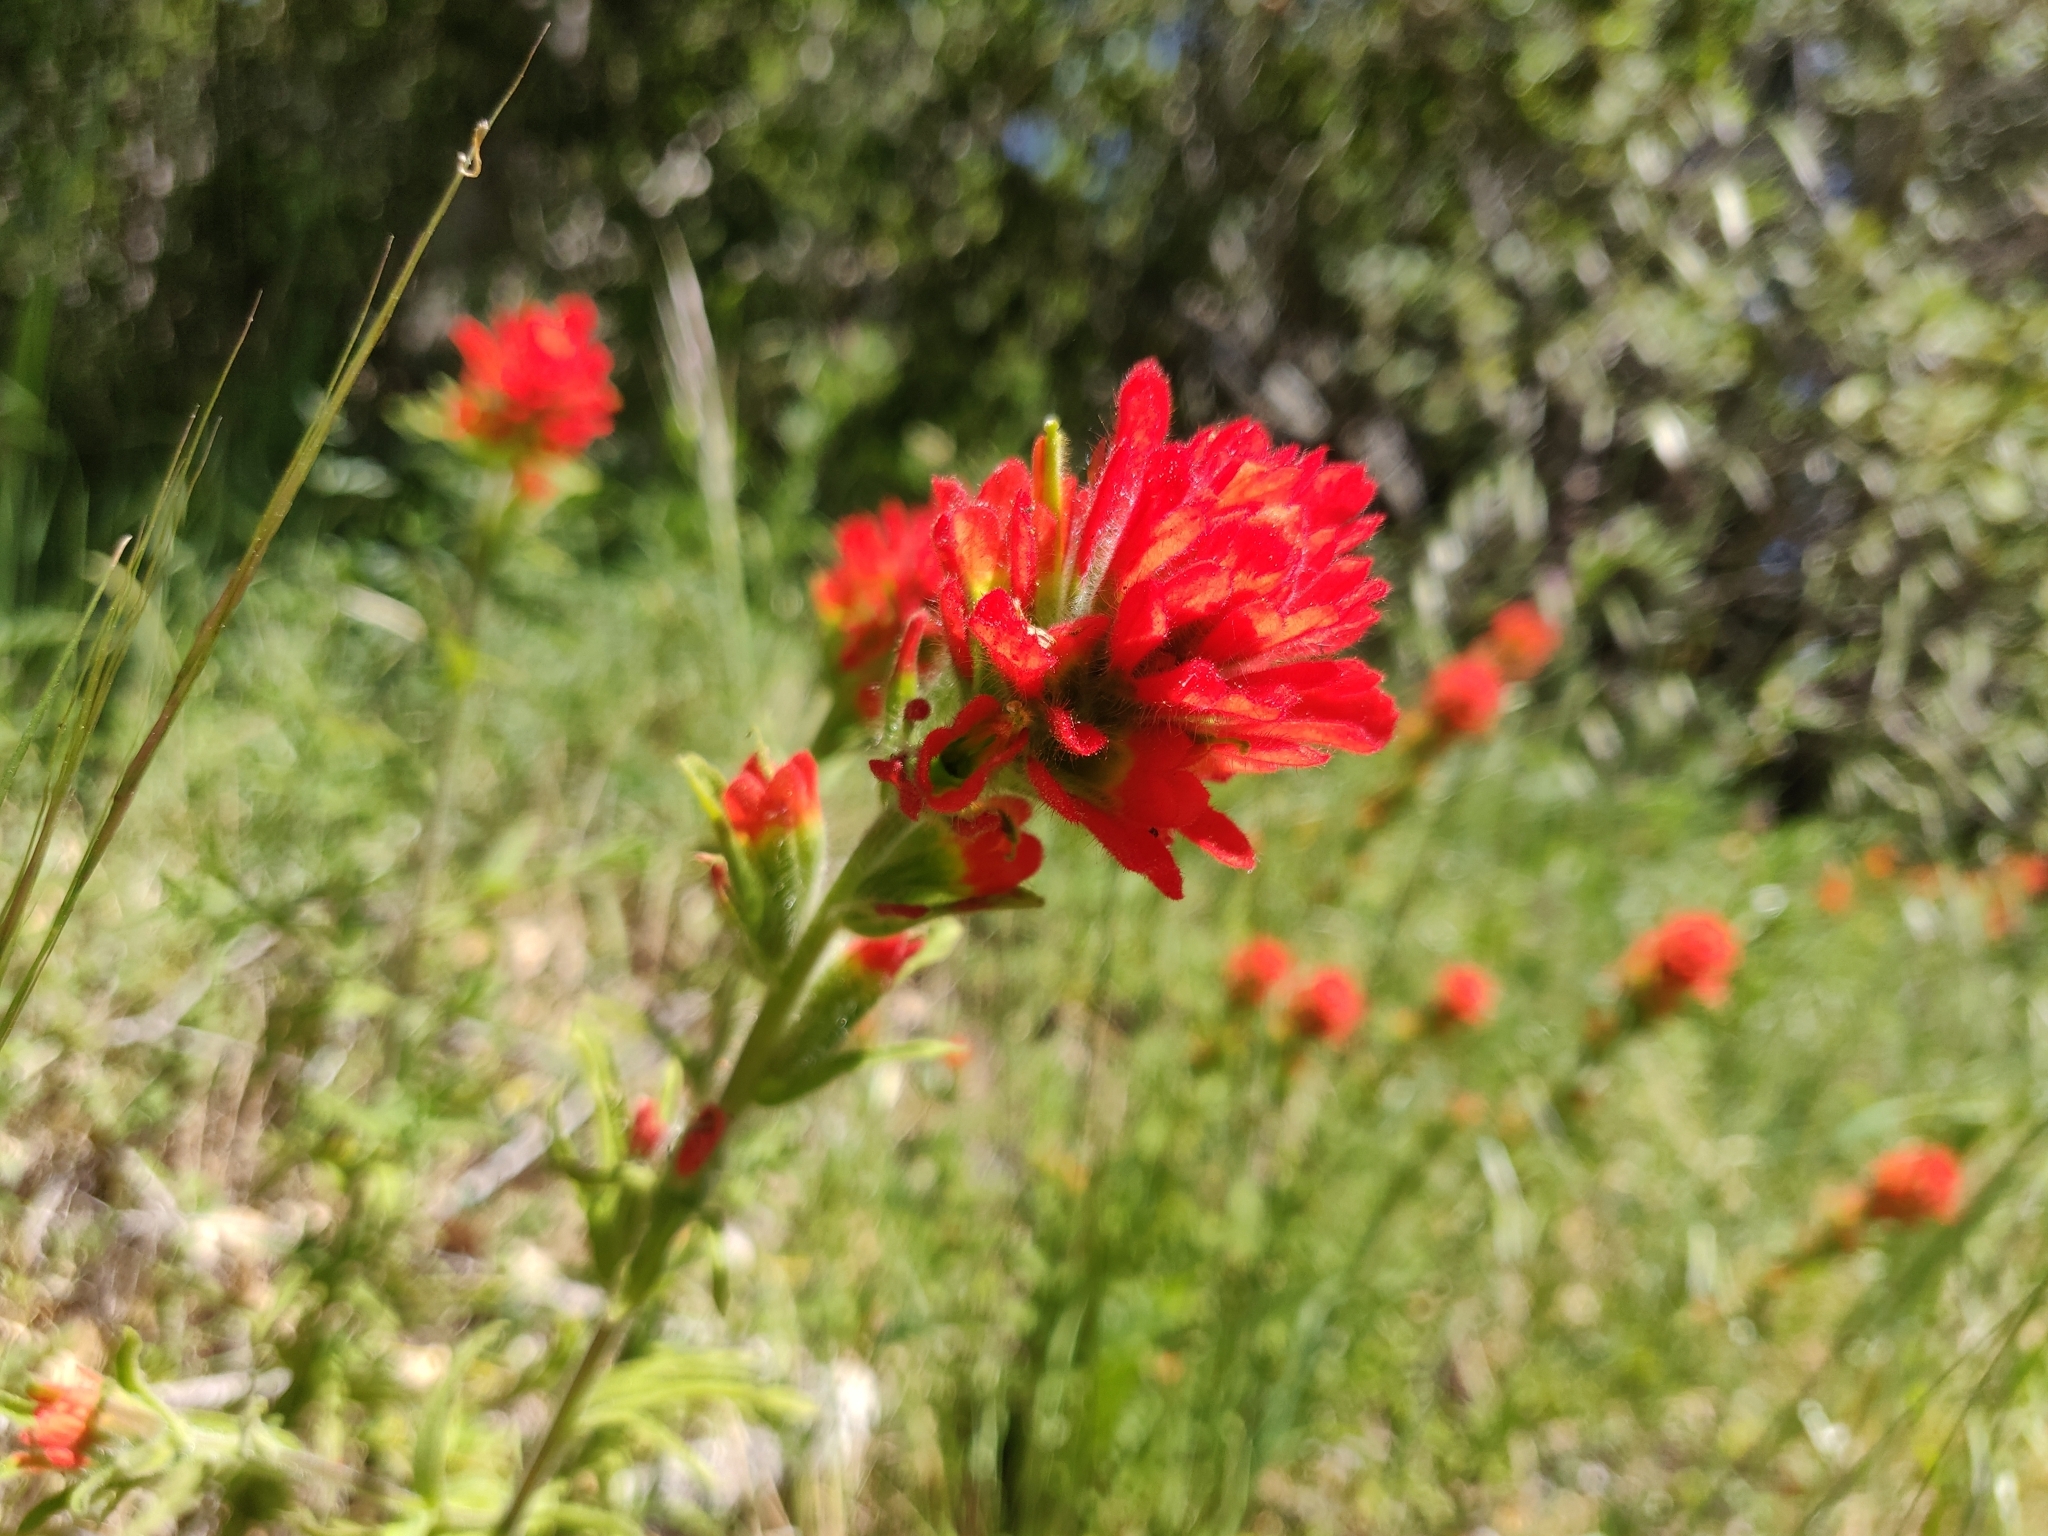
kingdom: Plantae
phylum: Tracheophyta
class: Magnoliopsida
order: Lamiales
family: Orobanchaceae
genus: Castilleja
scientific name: Castilleja affinis
